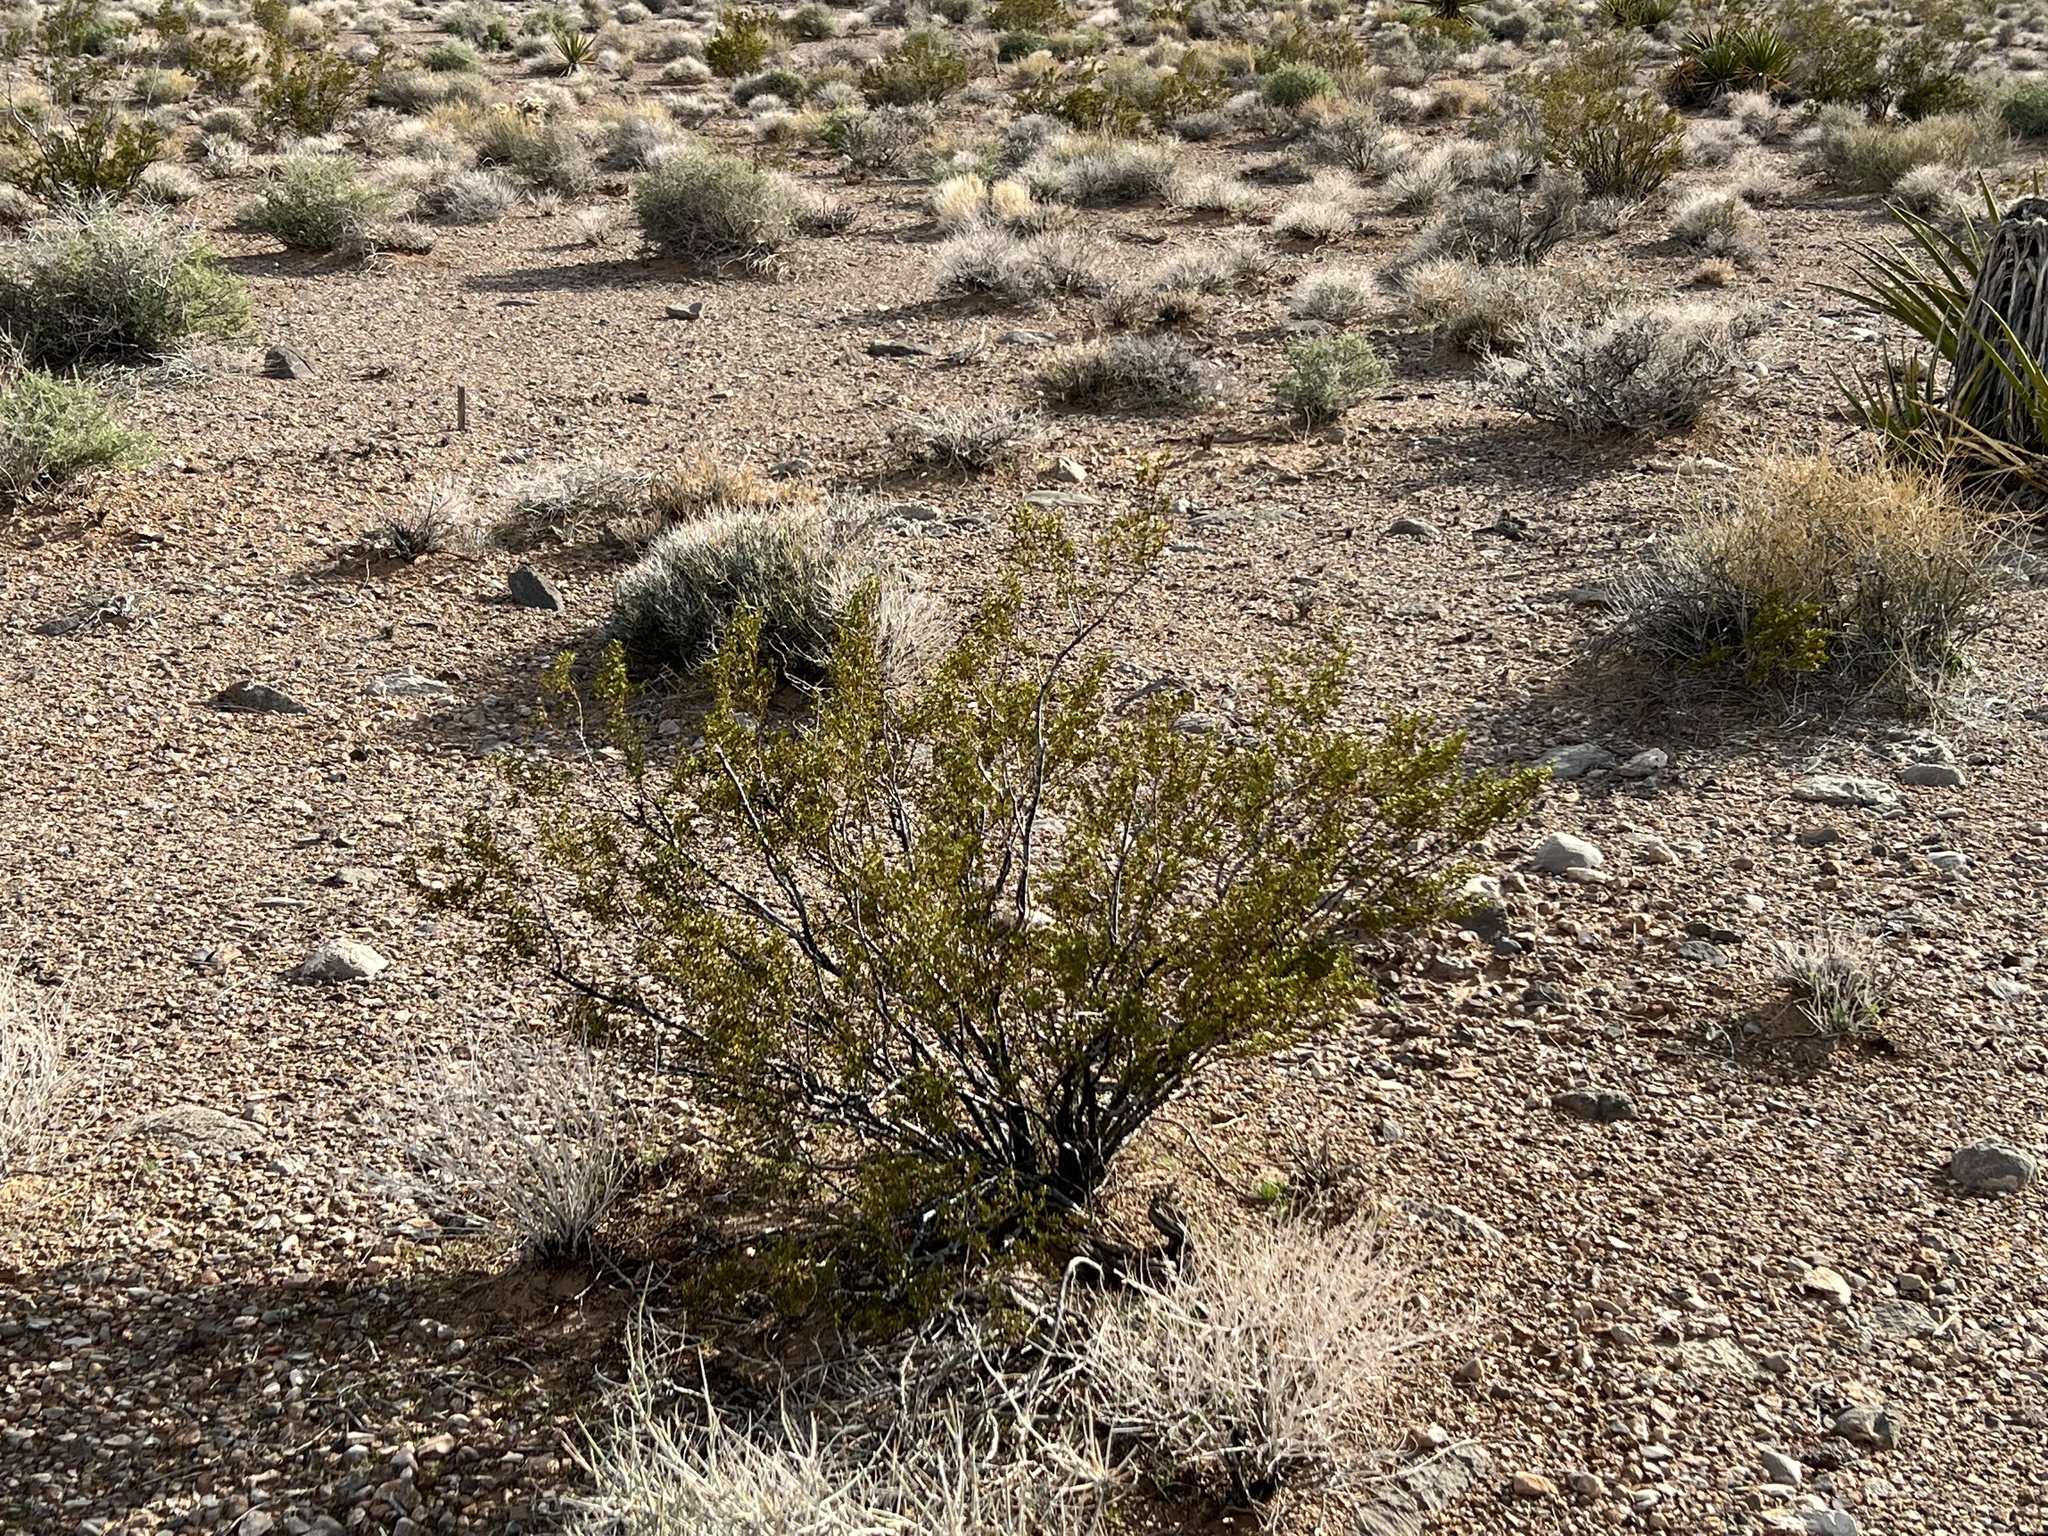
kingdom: Plantae
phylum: Tracheophyta
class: Magnoliopsida
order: Zygophyllales
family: Zygophyllaceae
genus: Larrea
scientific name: Larrea tridentata
